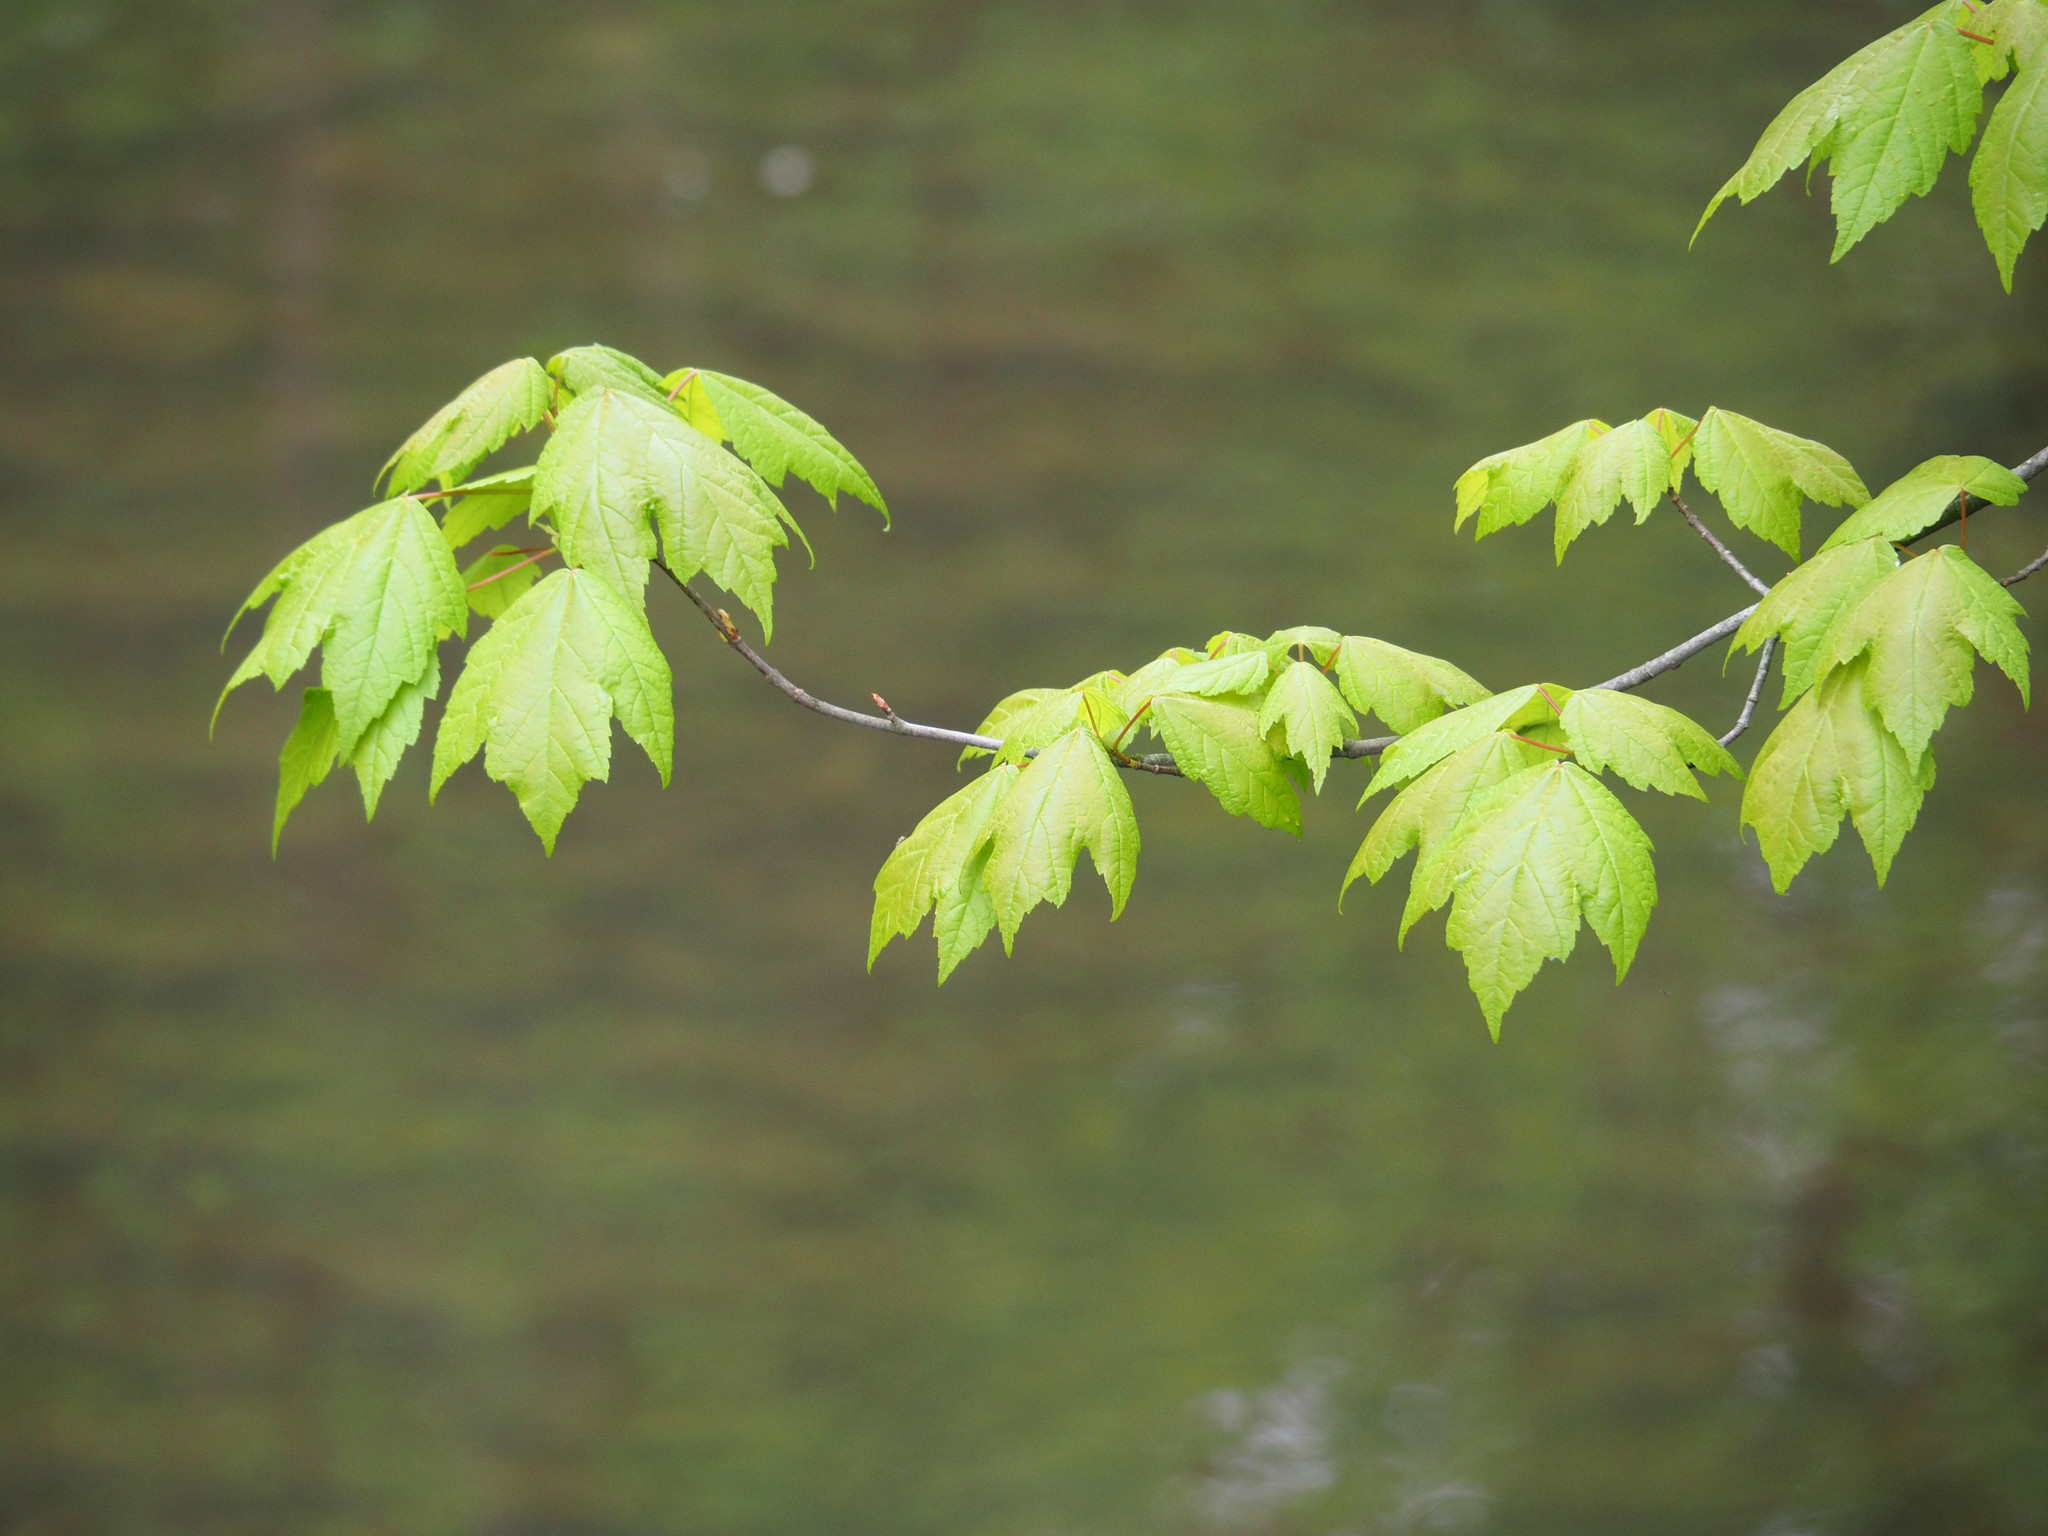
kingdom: Plantae
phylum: Tracheophyta
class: Magnoliopsida
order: Sapindales
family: Sapindaceae
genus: Acer
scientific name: Acer rubrum
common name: Red maple
